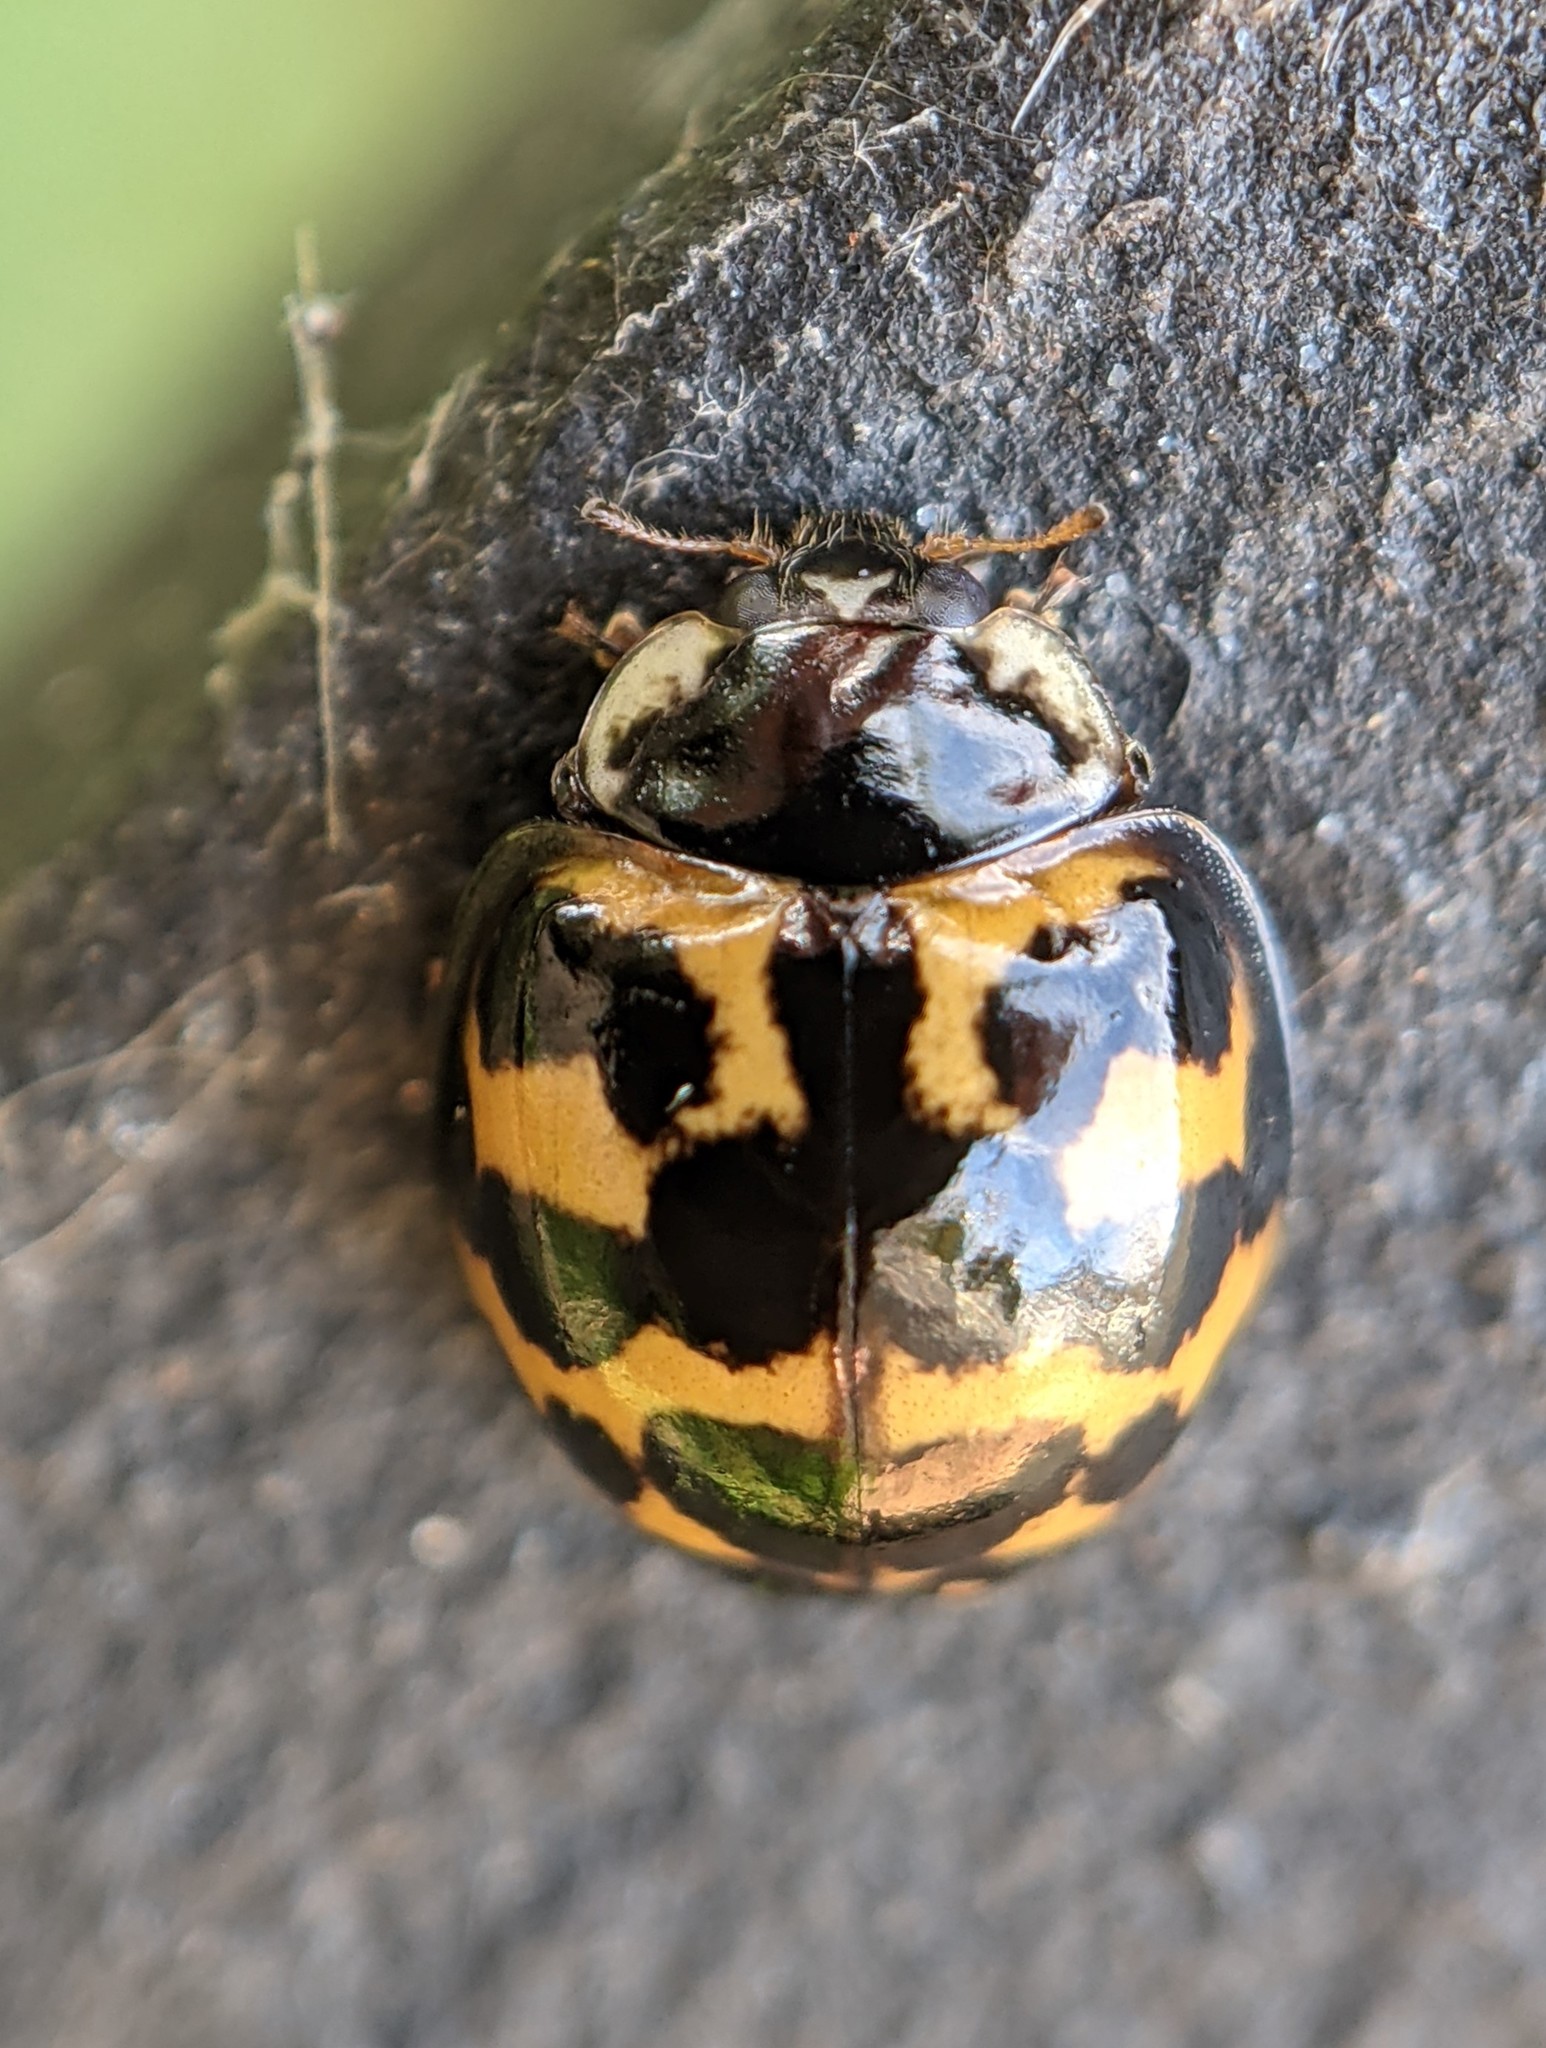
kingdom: Animalia
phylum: Arthropoda
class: Insecta
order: Coleoptera
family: Coccinellidae
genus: Harmonia
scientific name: Harmonia axyridis
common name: Harlequin ladybird
